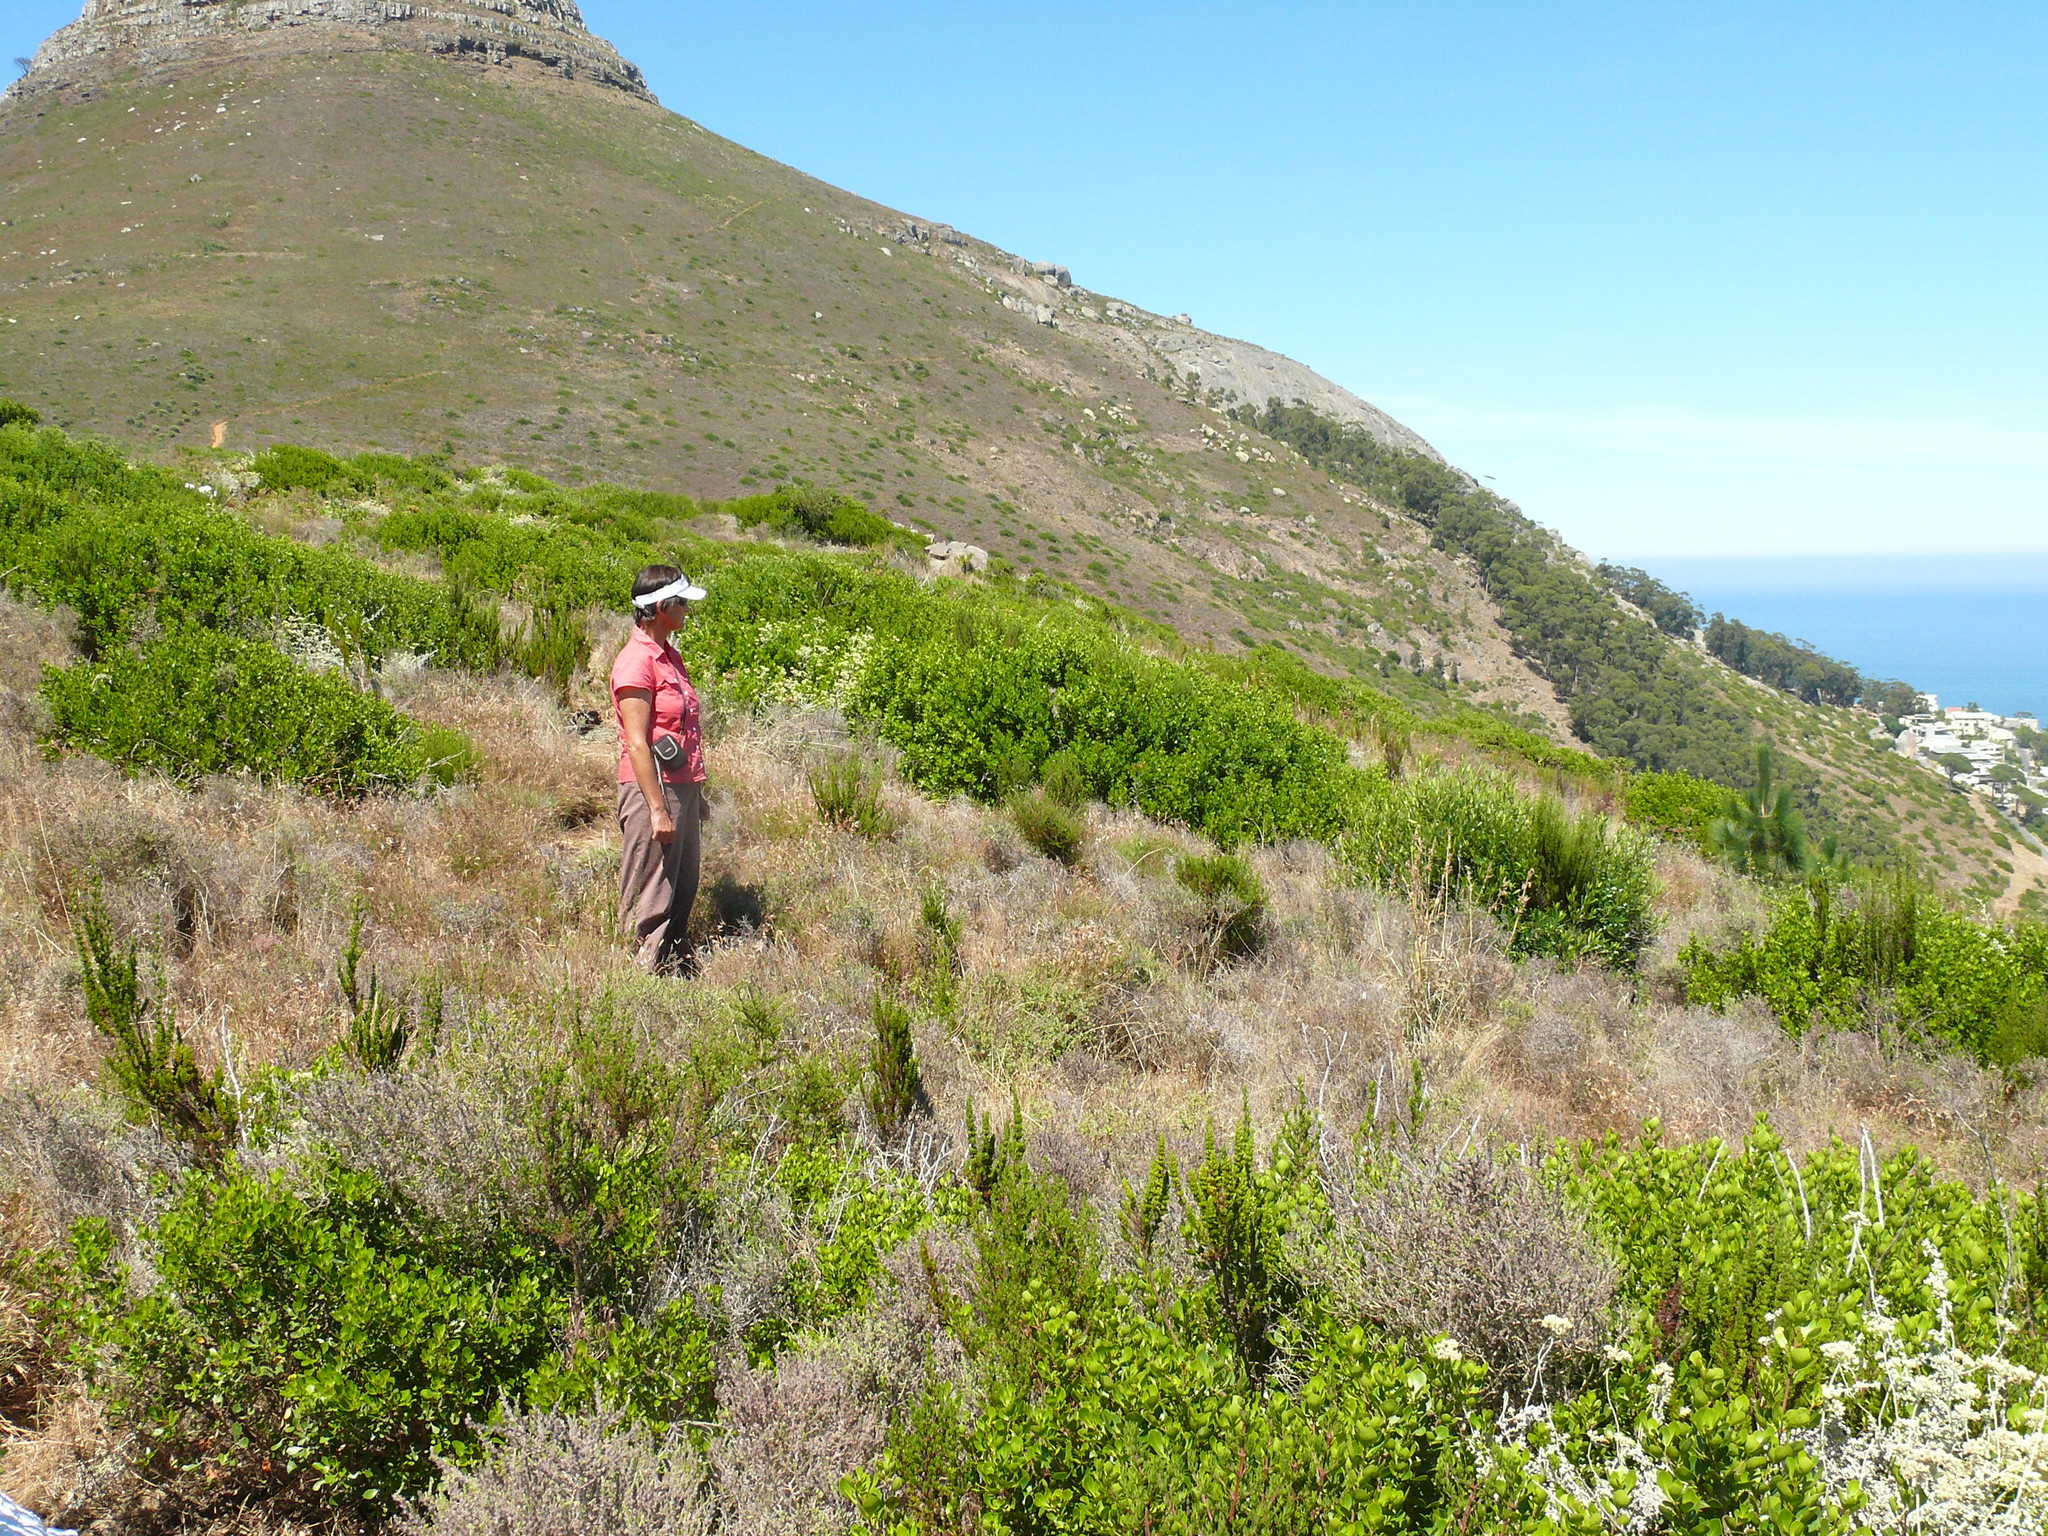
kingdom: Plantae
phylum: Tracheophyta
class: Magnoliopsida
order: Sapindales
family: Anacardiaceae
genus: Searsia
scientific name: Searsia lucida
